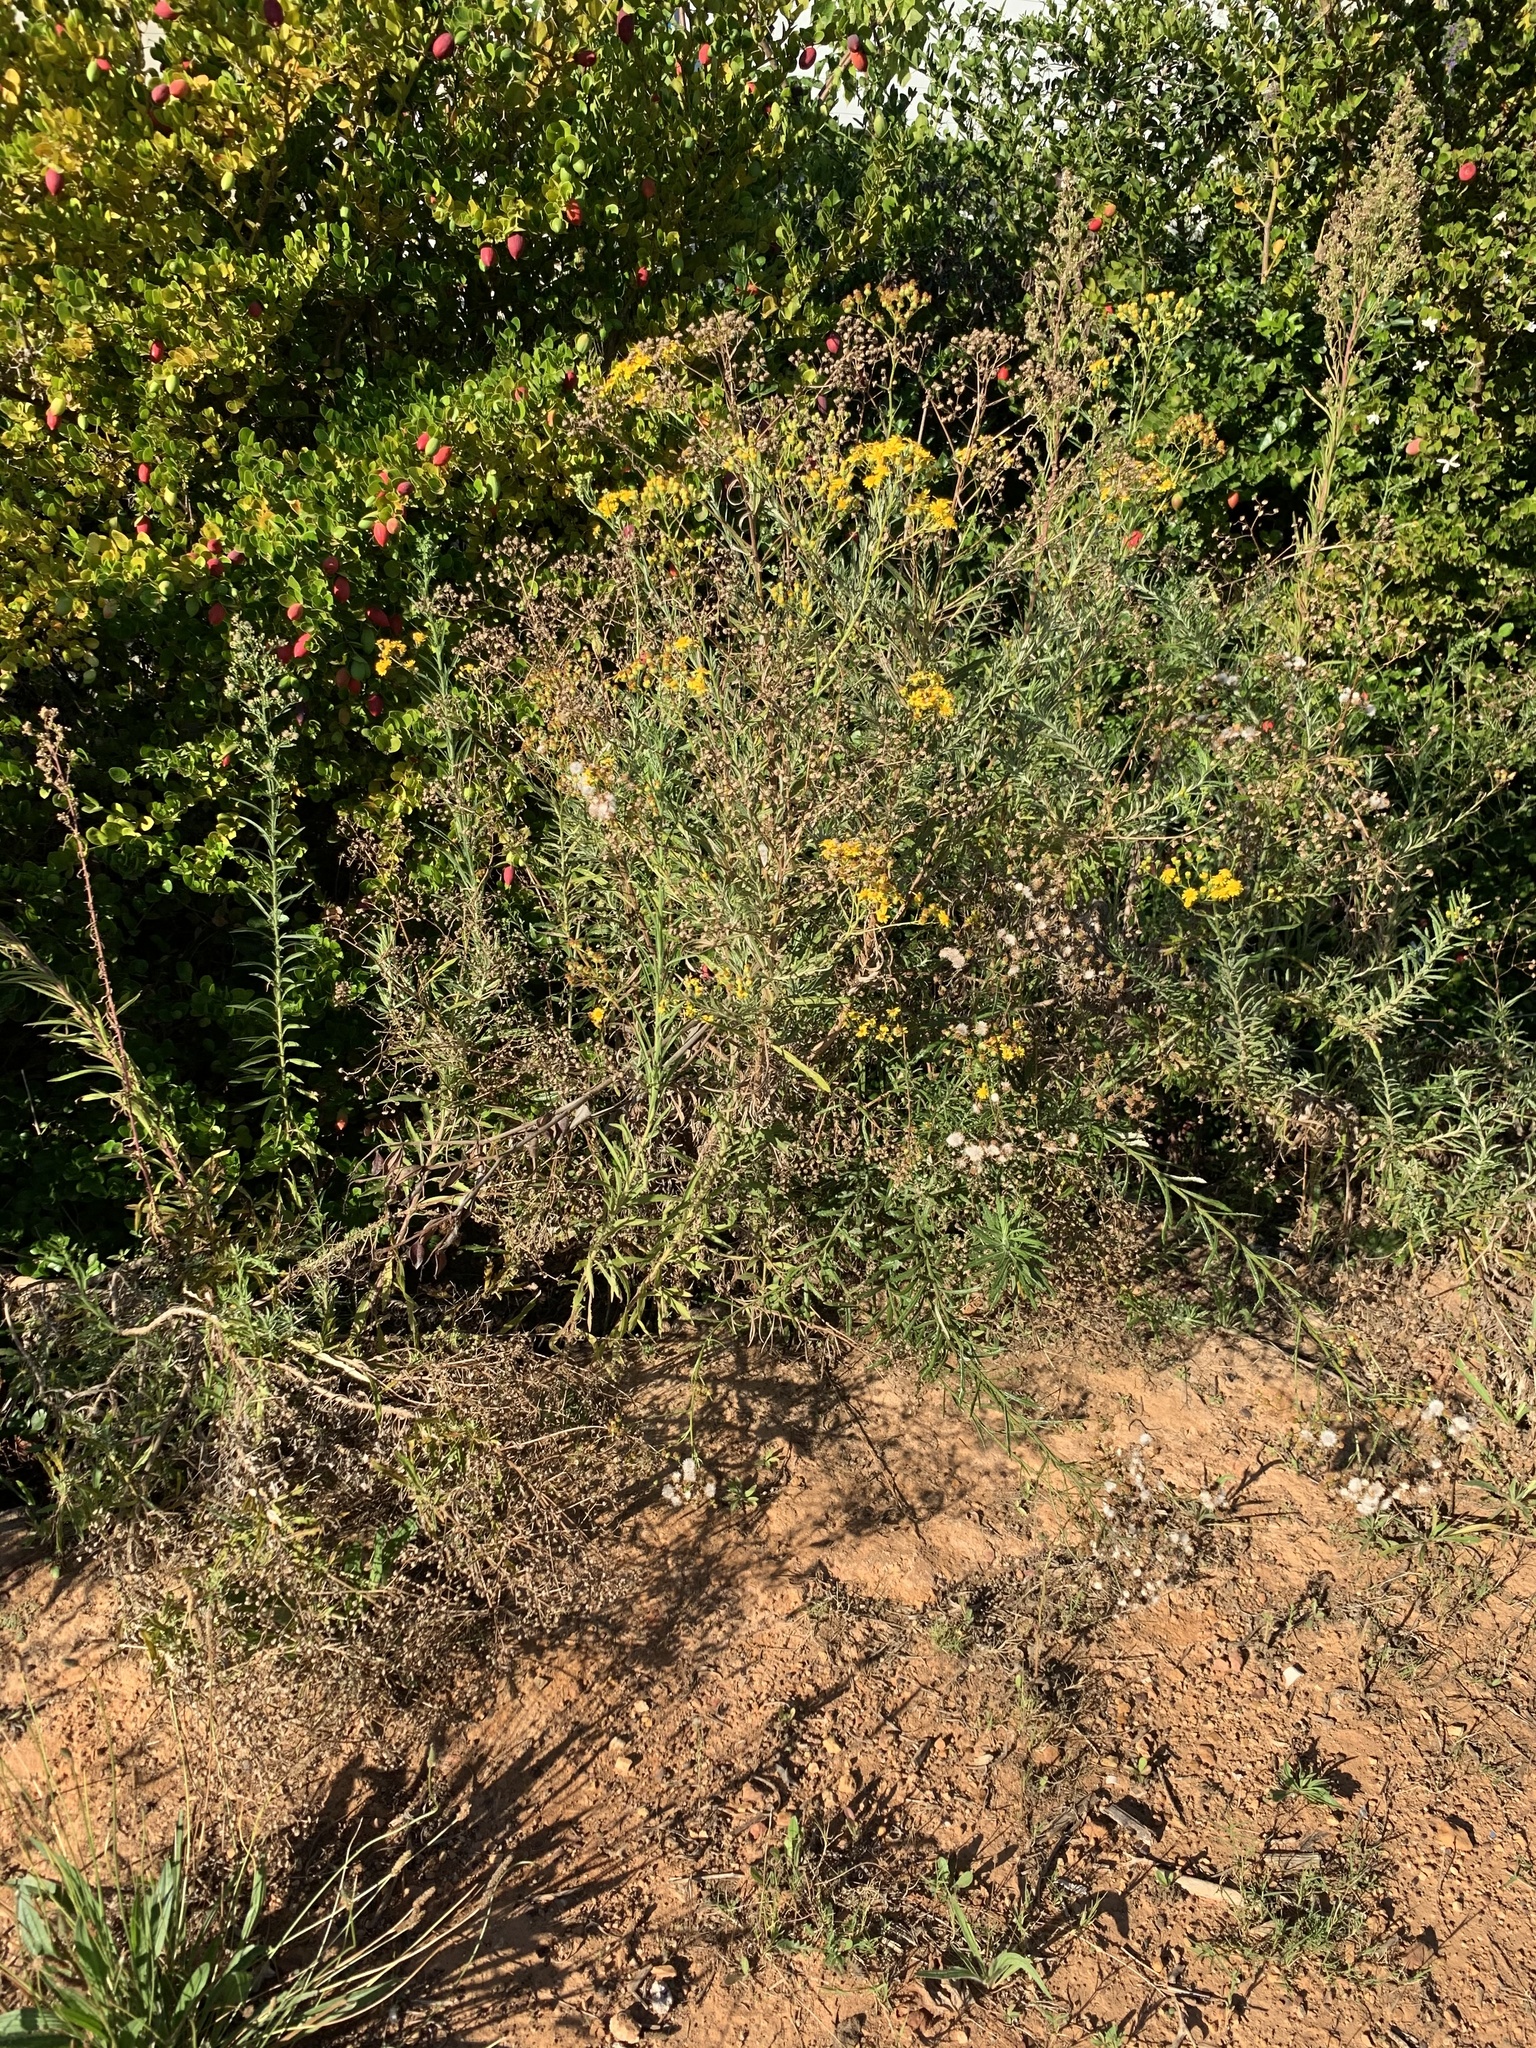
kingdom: Plantae
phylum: Tracheophyta
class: Magnoliopsida
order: Asterales
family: Asteraceae
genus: Senecio
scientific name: Senecio pterophorus
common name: Shoddy ragwort
